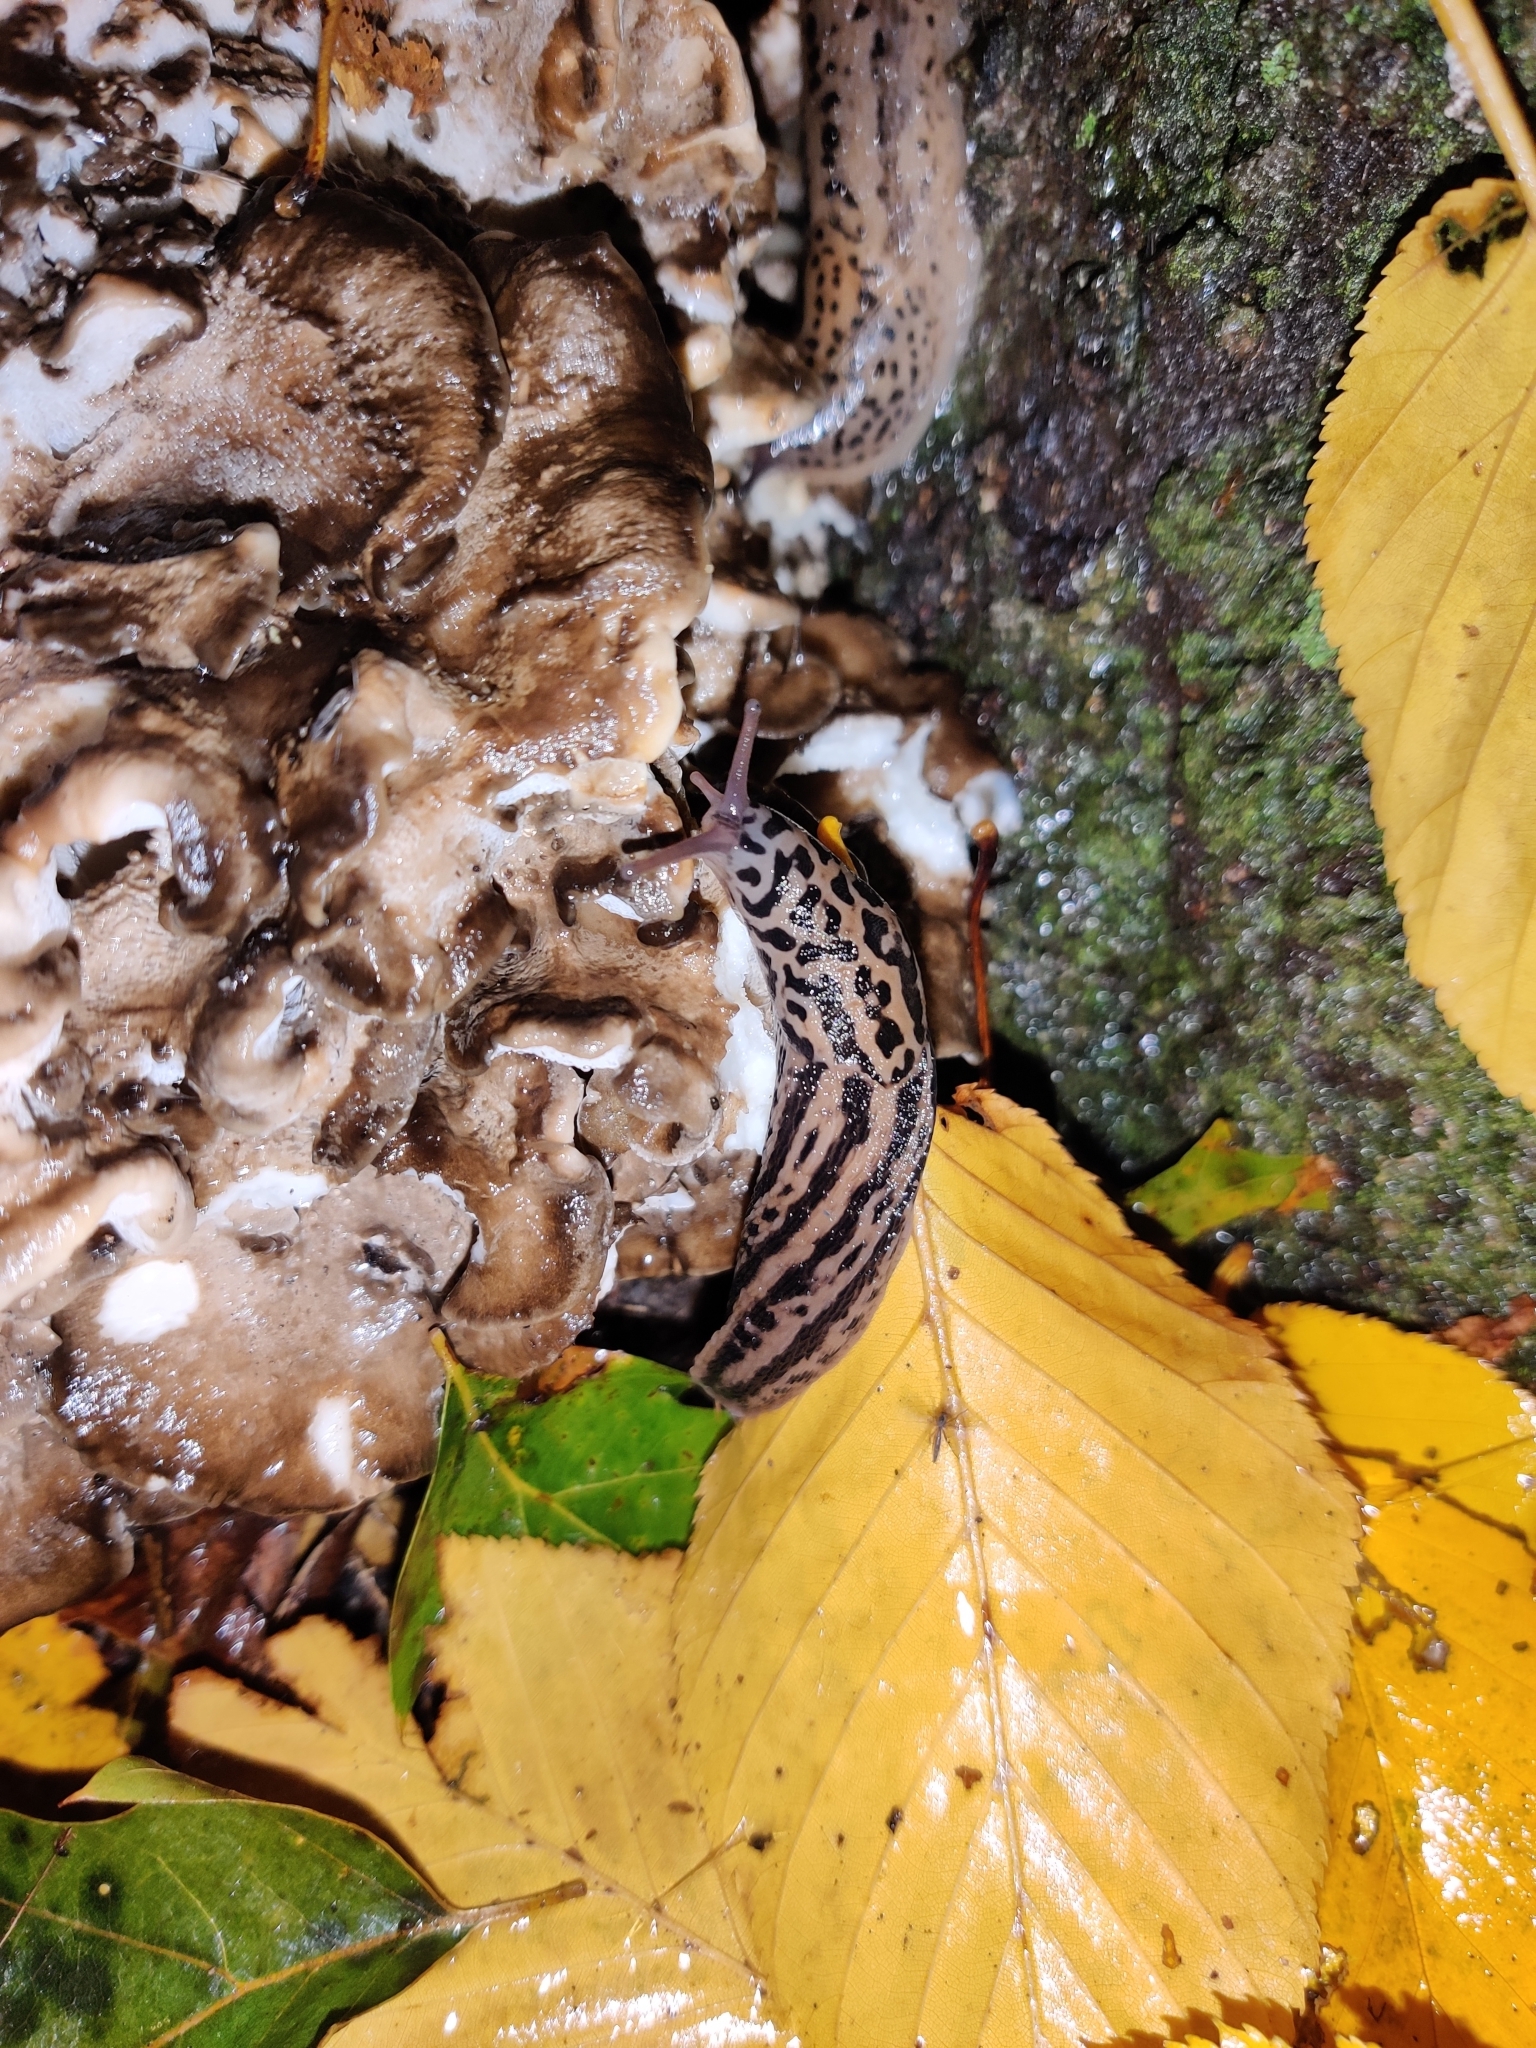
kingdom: Animalia
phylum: Mollusca
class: Gastropoda
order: Stylommatophora
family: Limacidae
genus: Limax
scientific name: Limax maximus
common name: Great grey slug
